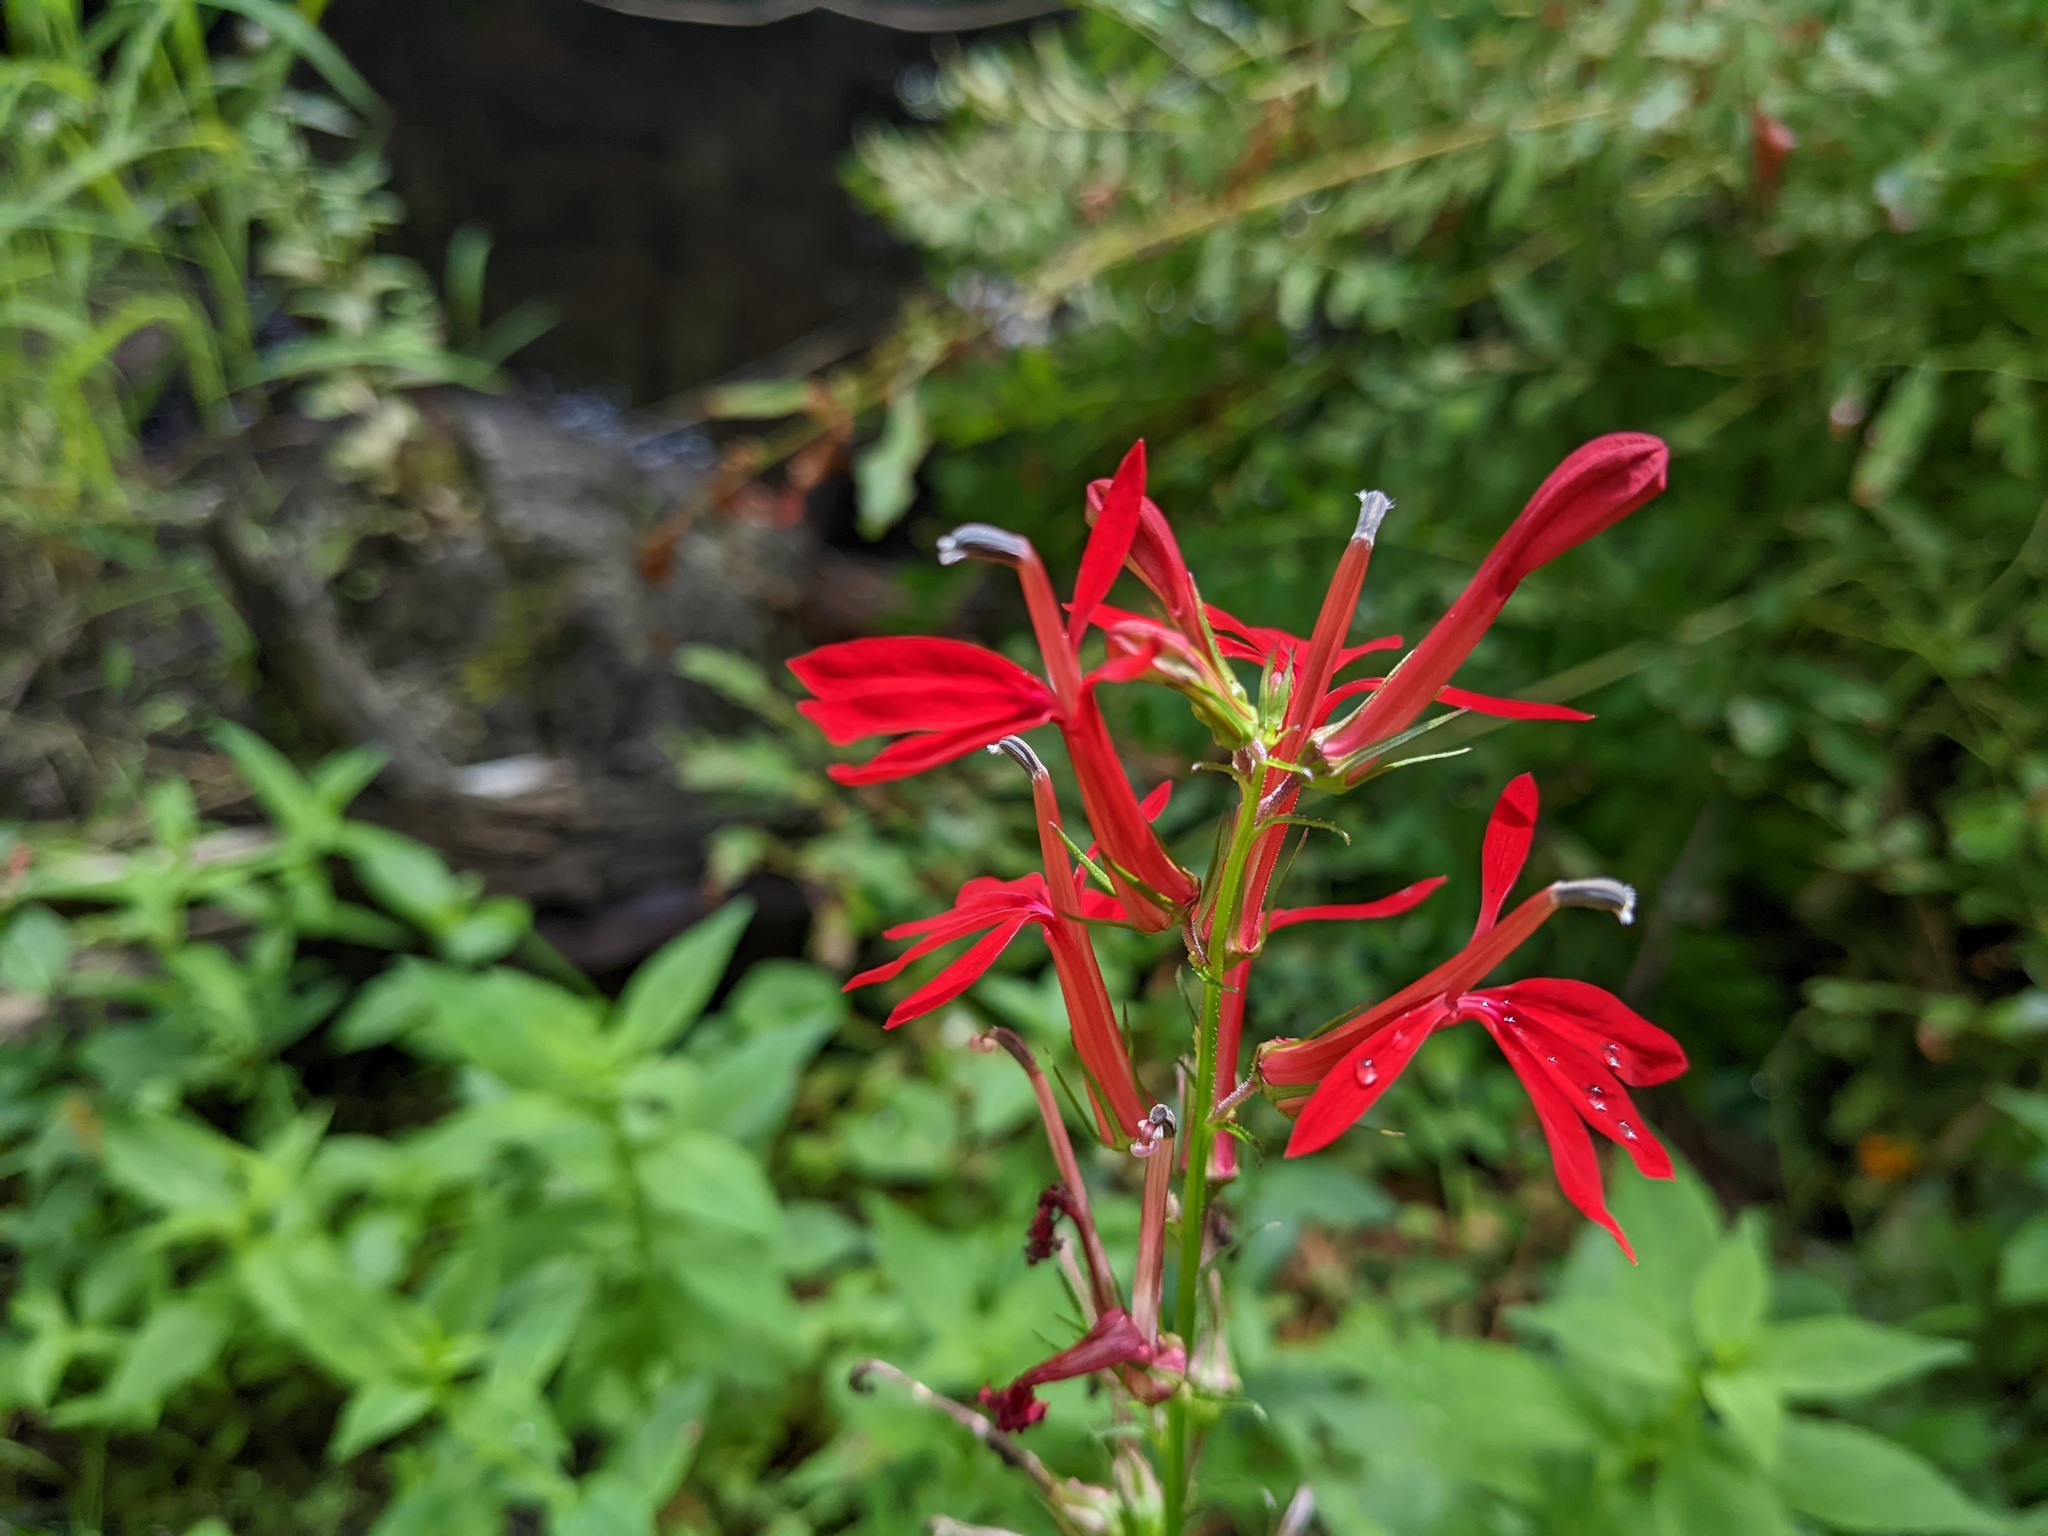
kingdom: Plantae
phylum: Tracheophyta
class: Magnoliopsida
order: Asterales
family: Campanulaceae
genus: Lobelia
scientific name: Lobelia cardinalis
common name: Cardinal flower
